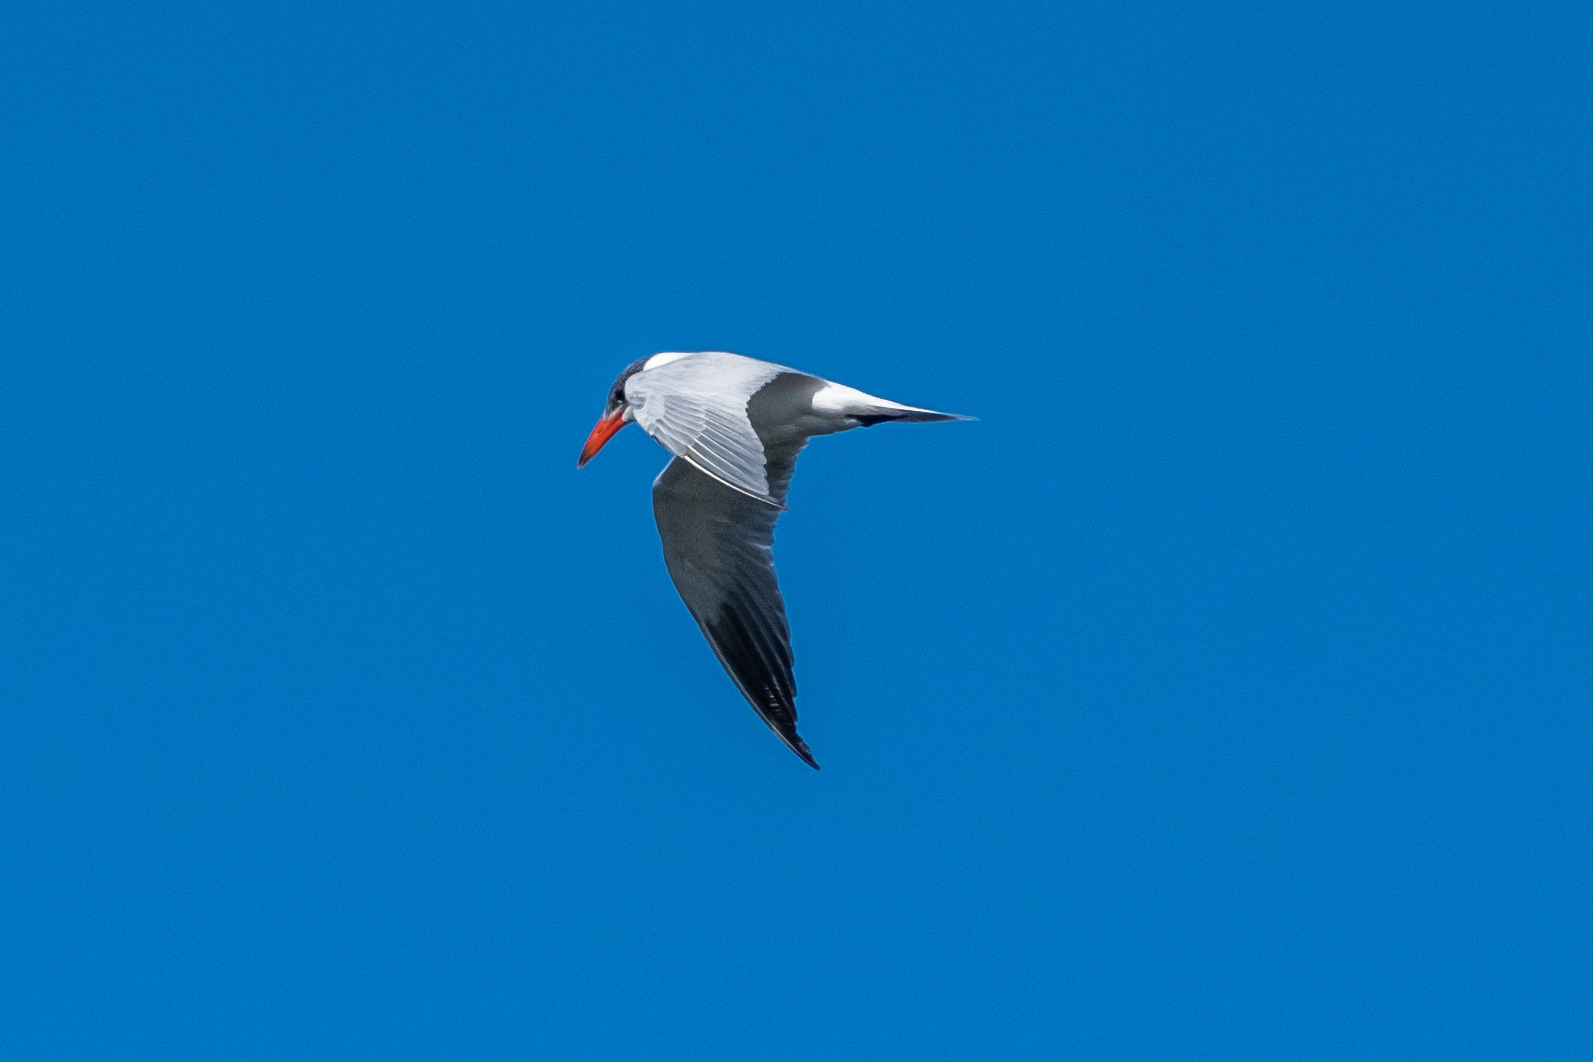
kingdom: Animalia
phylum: Chordata
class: Aves
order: Charadriiformes
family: Laridae
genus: Hydroprogne
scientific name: Hydroprogne caspia
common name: Caspian tern
